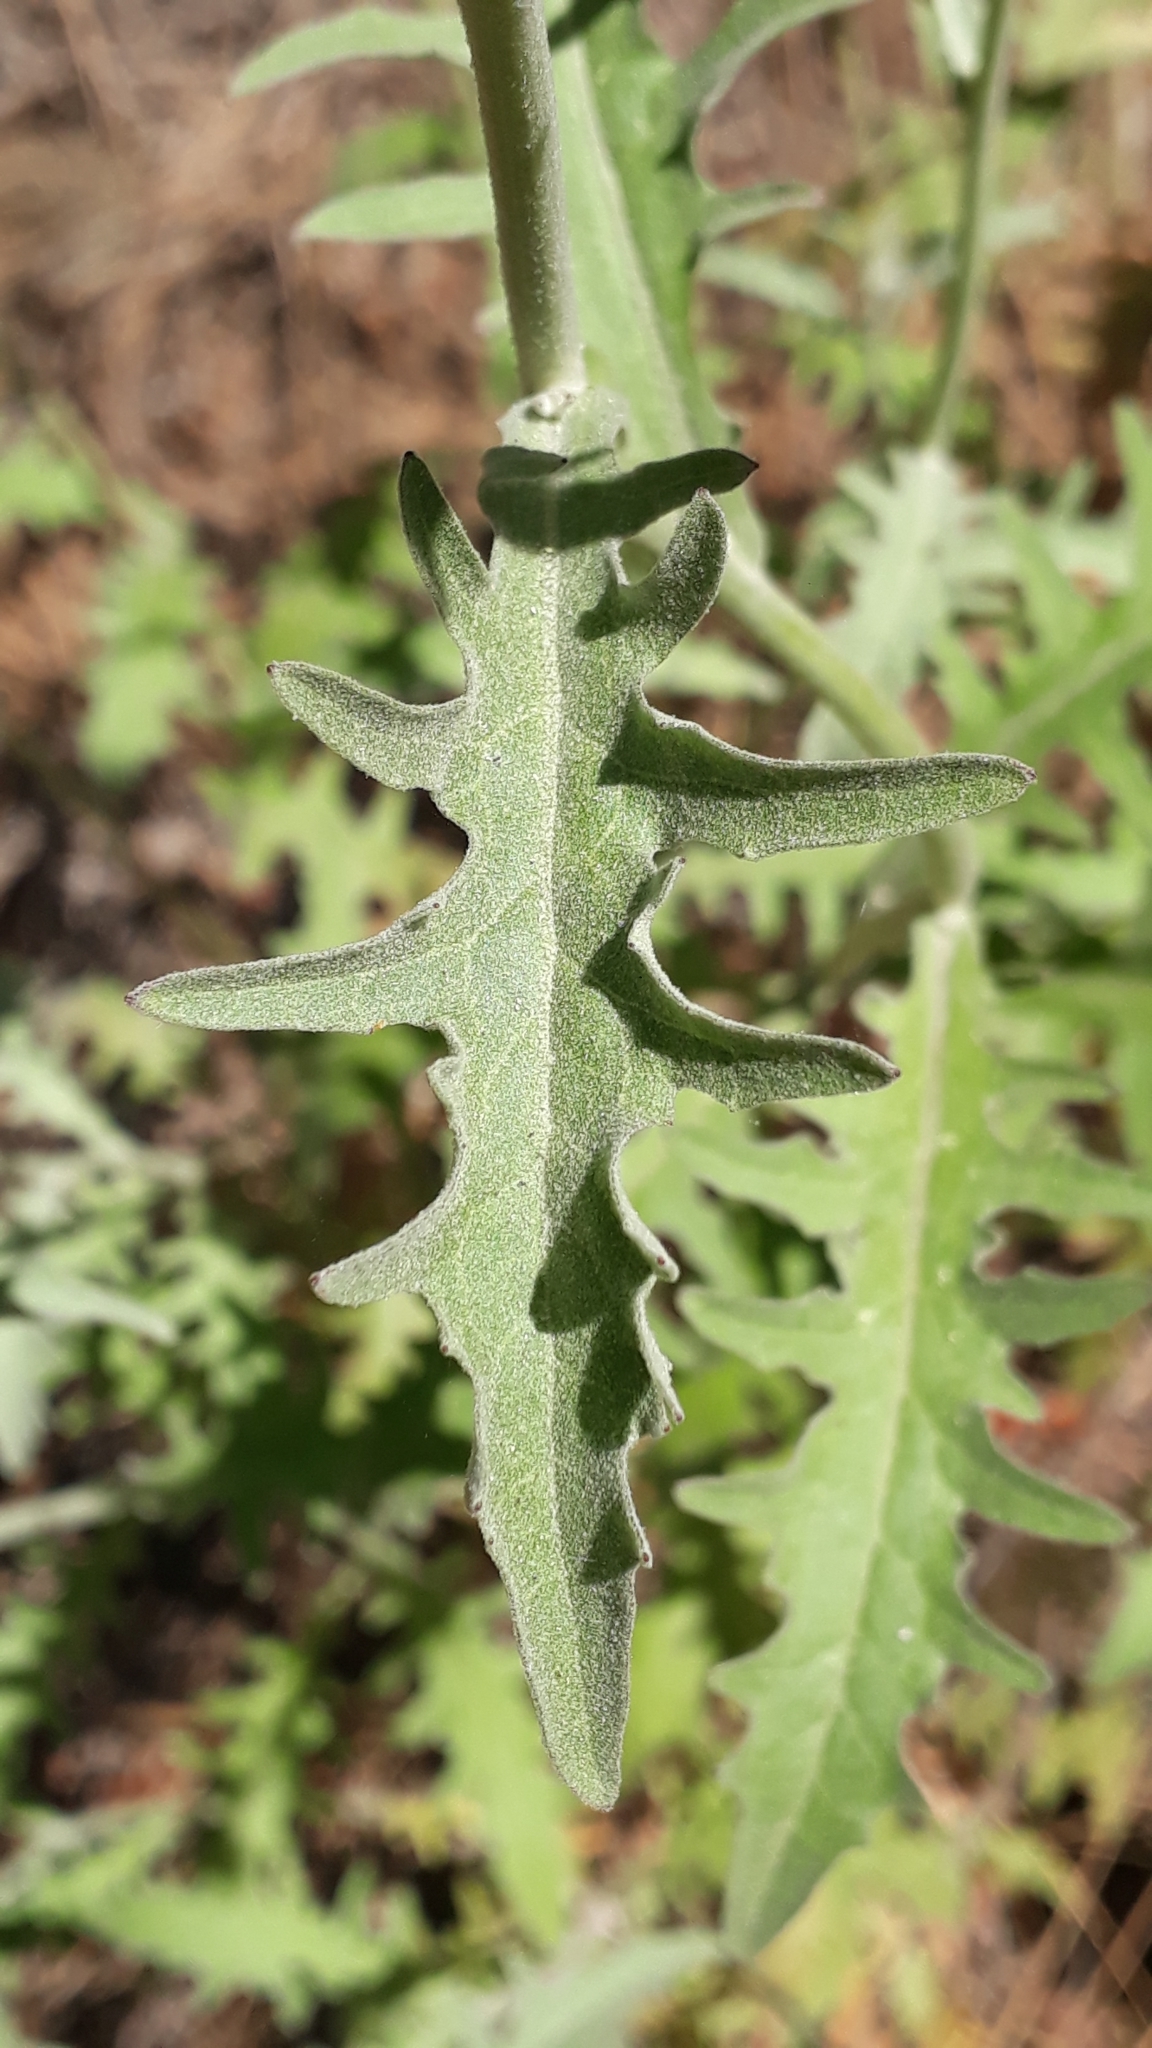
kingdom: Plantae
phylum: Tracheophyta
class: Magnoliopsida
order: Asterales
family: Asteraceae
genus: Andryala
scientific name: Andryala pinnatifida
